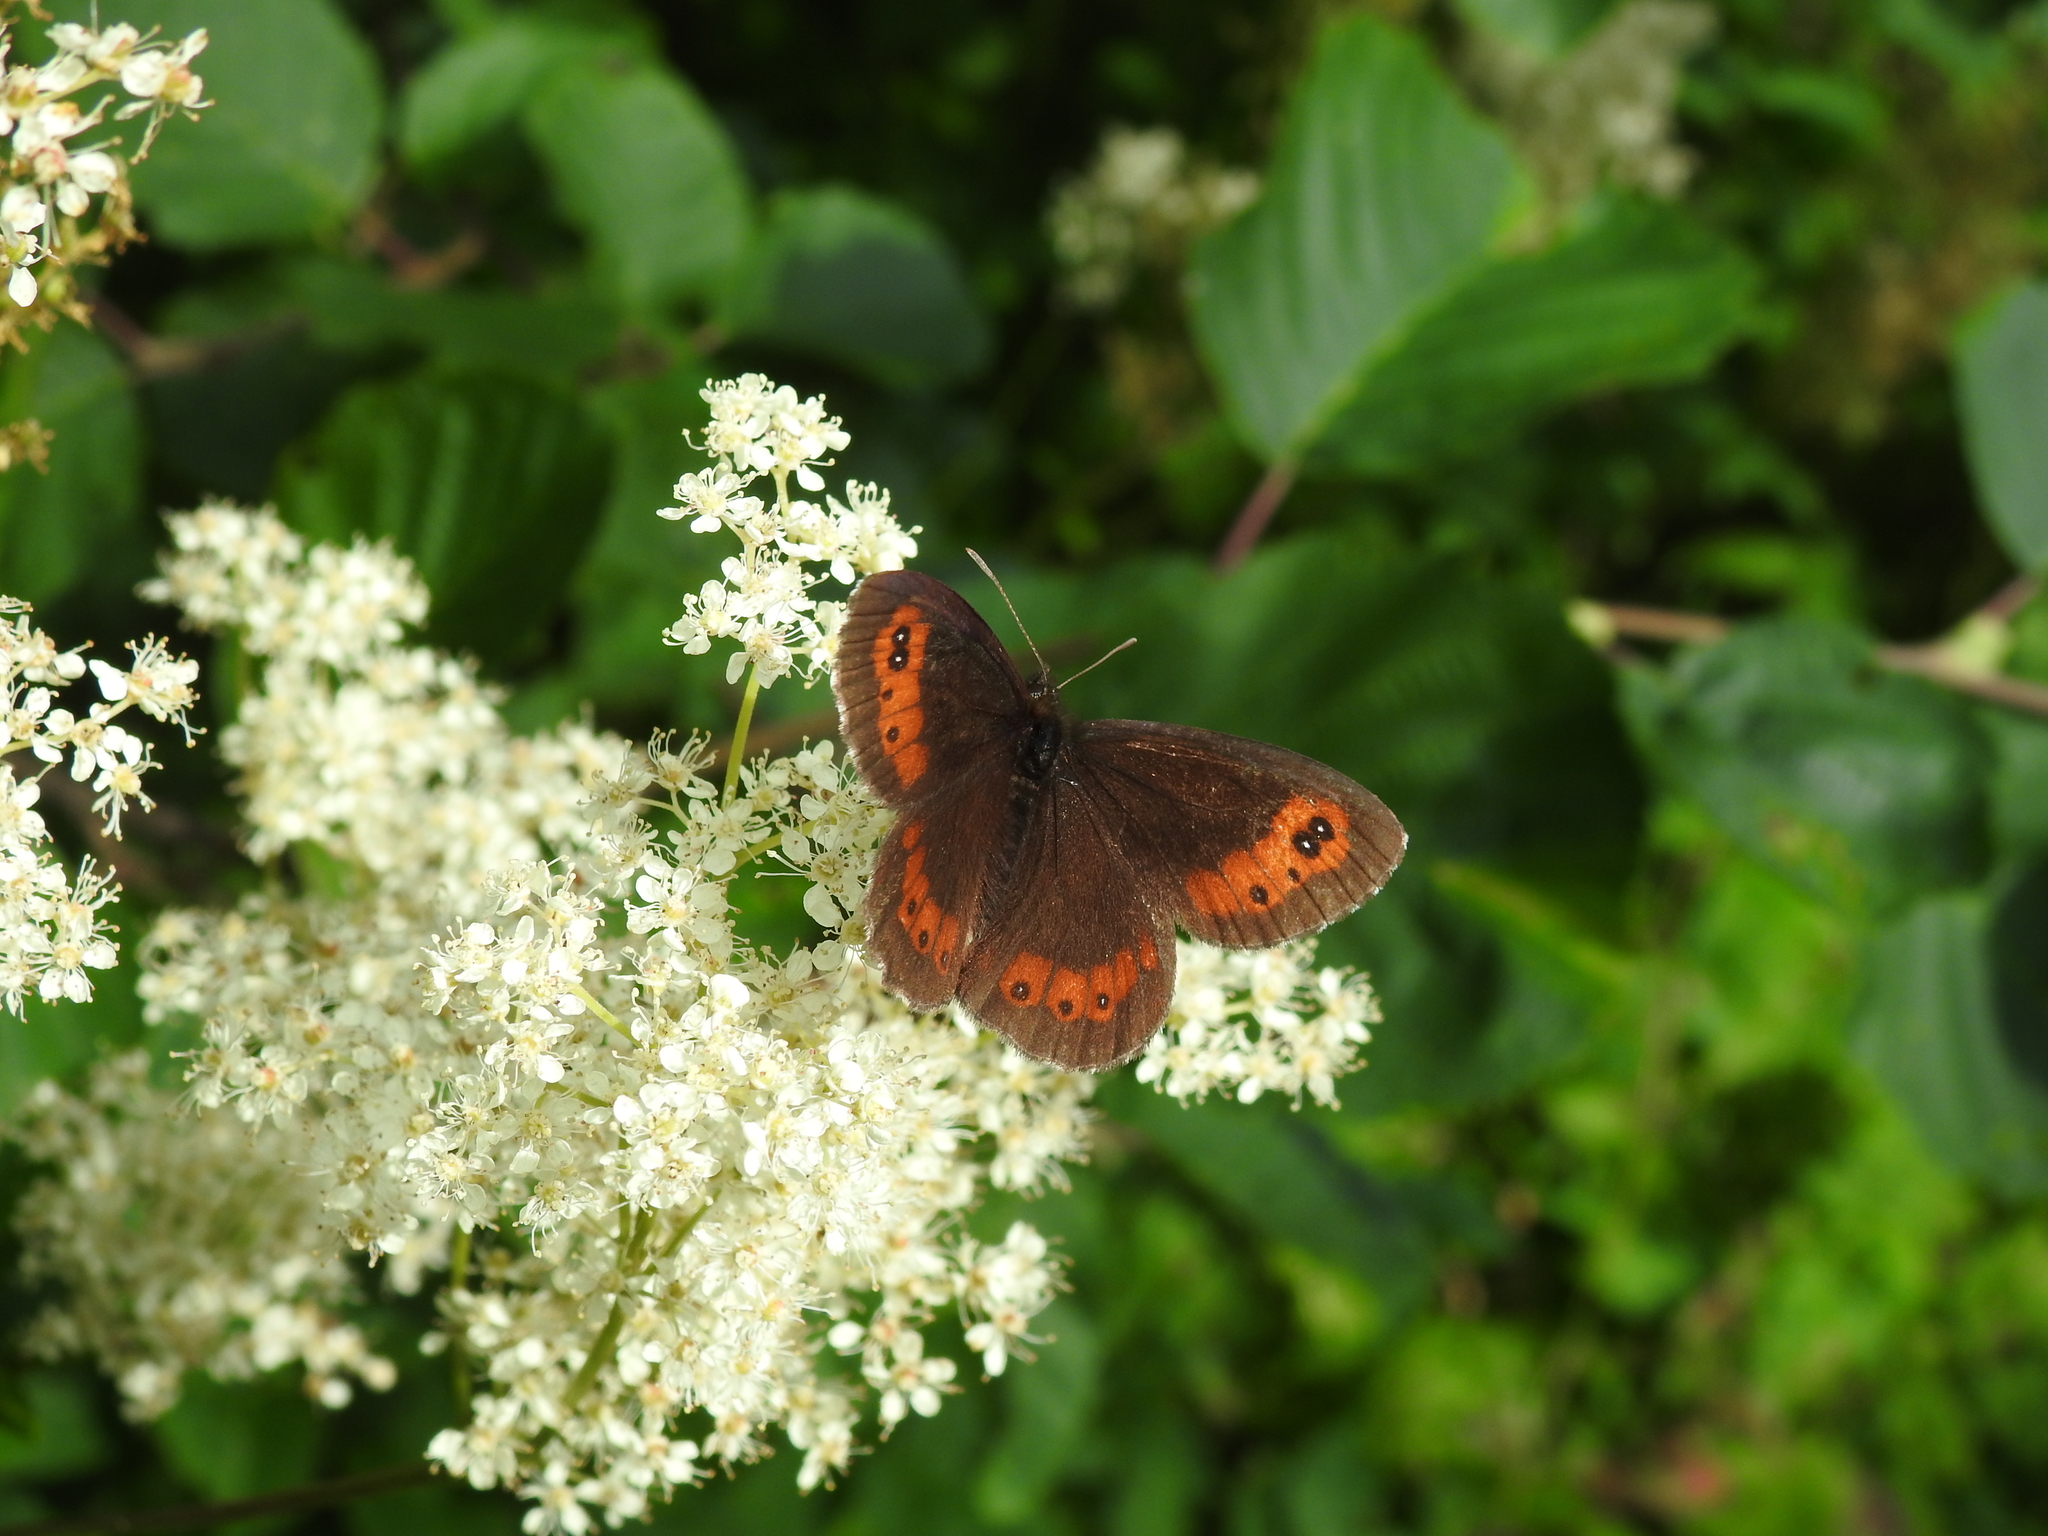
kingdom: Animalia
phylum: Arthropoda
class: Insecta
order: Lepidoptera
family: Nymphalidae
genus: Erebia
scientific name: Erebia ligea
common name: Arran brown
